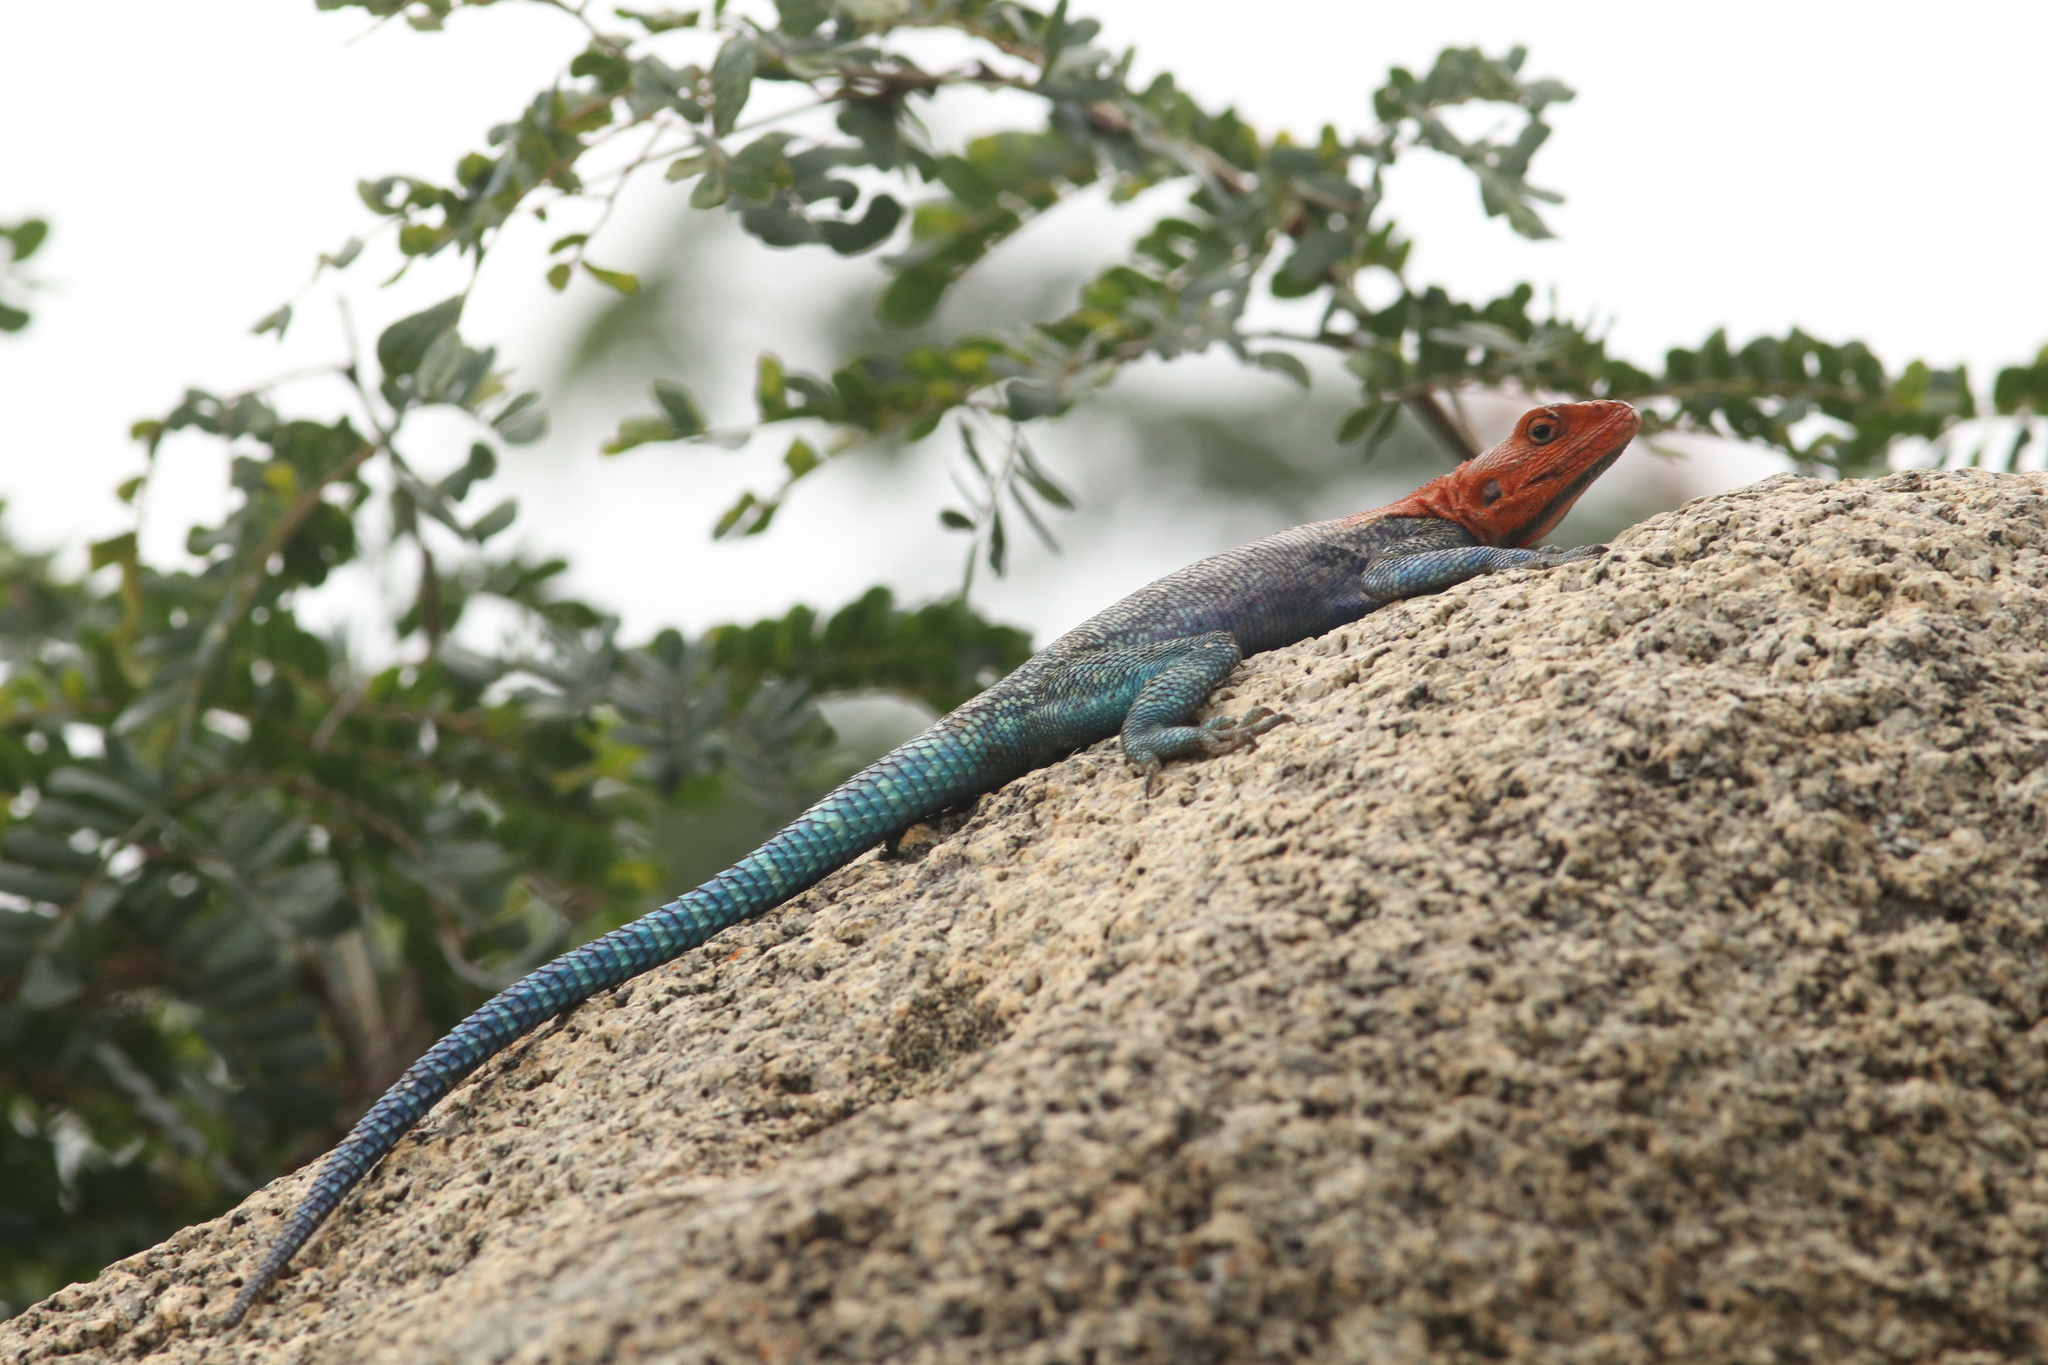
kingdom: Animalia
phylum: Chordata
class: Squamata
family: Agamidae
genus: Agama
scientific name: Agama dodomae
